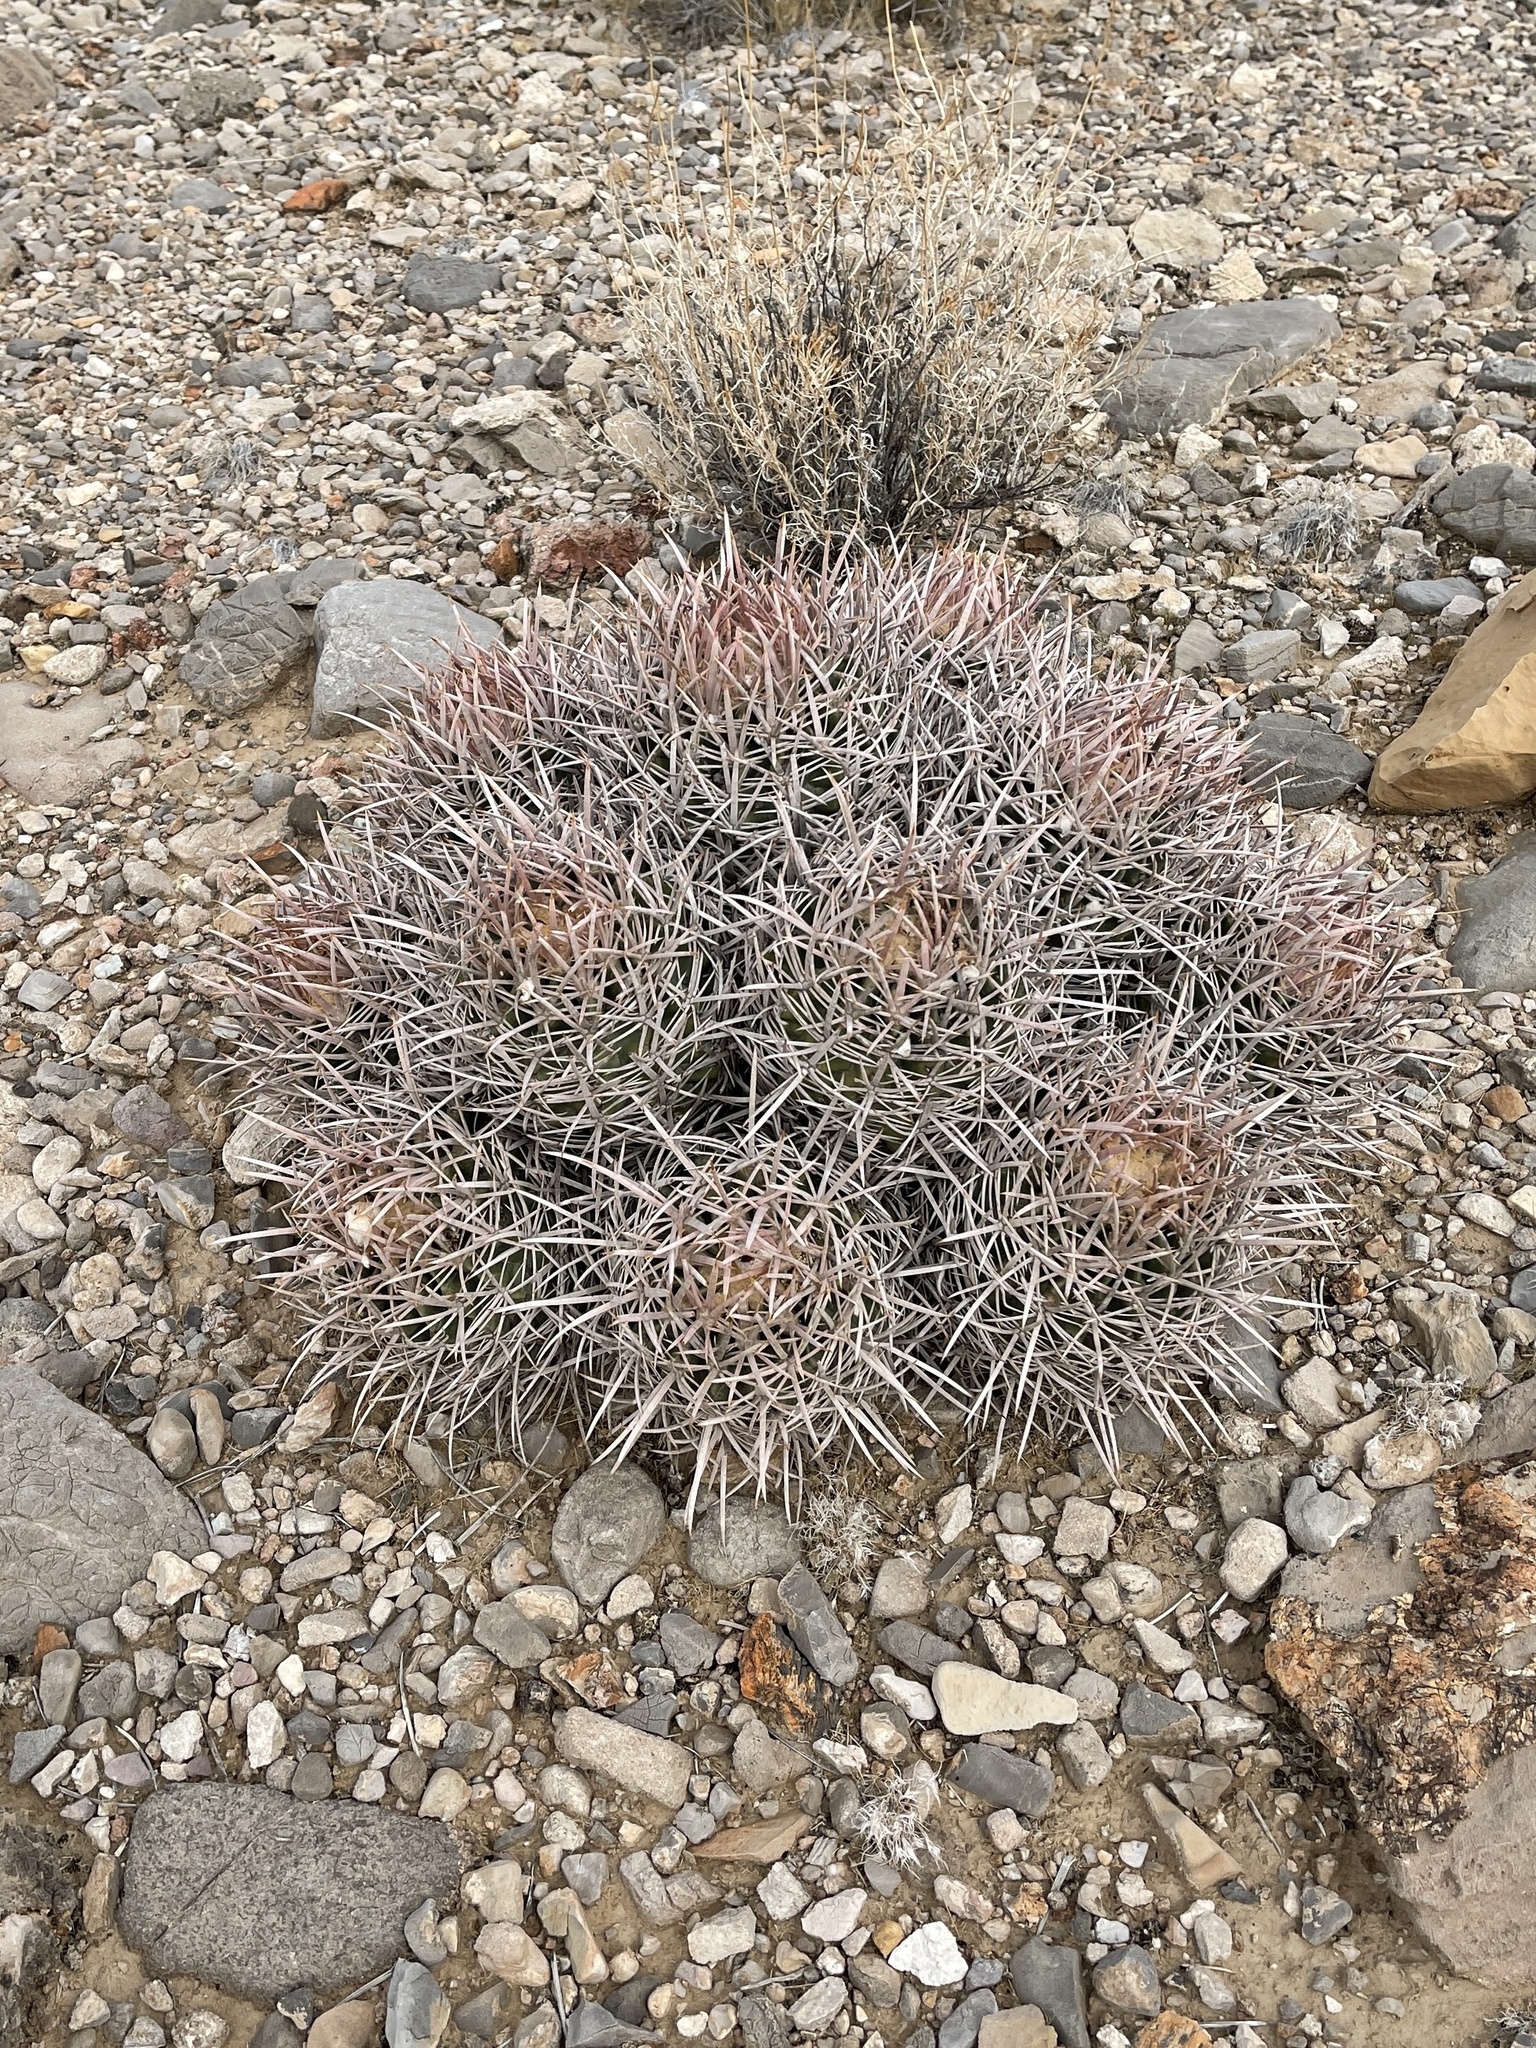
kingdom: Plantae
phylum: Tracheophyta
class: Magnoliopsida
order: Caryophyllales
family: Cactaceae
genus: Echinocactus
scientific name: Echinocactus polycephalus
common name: Cottontop cactus
